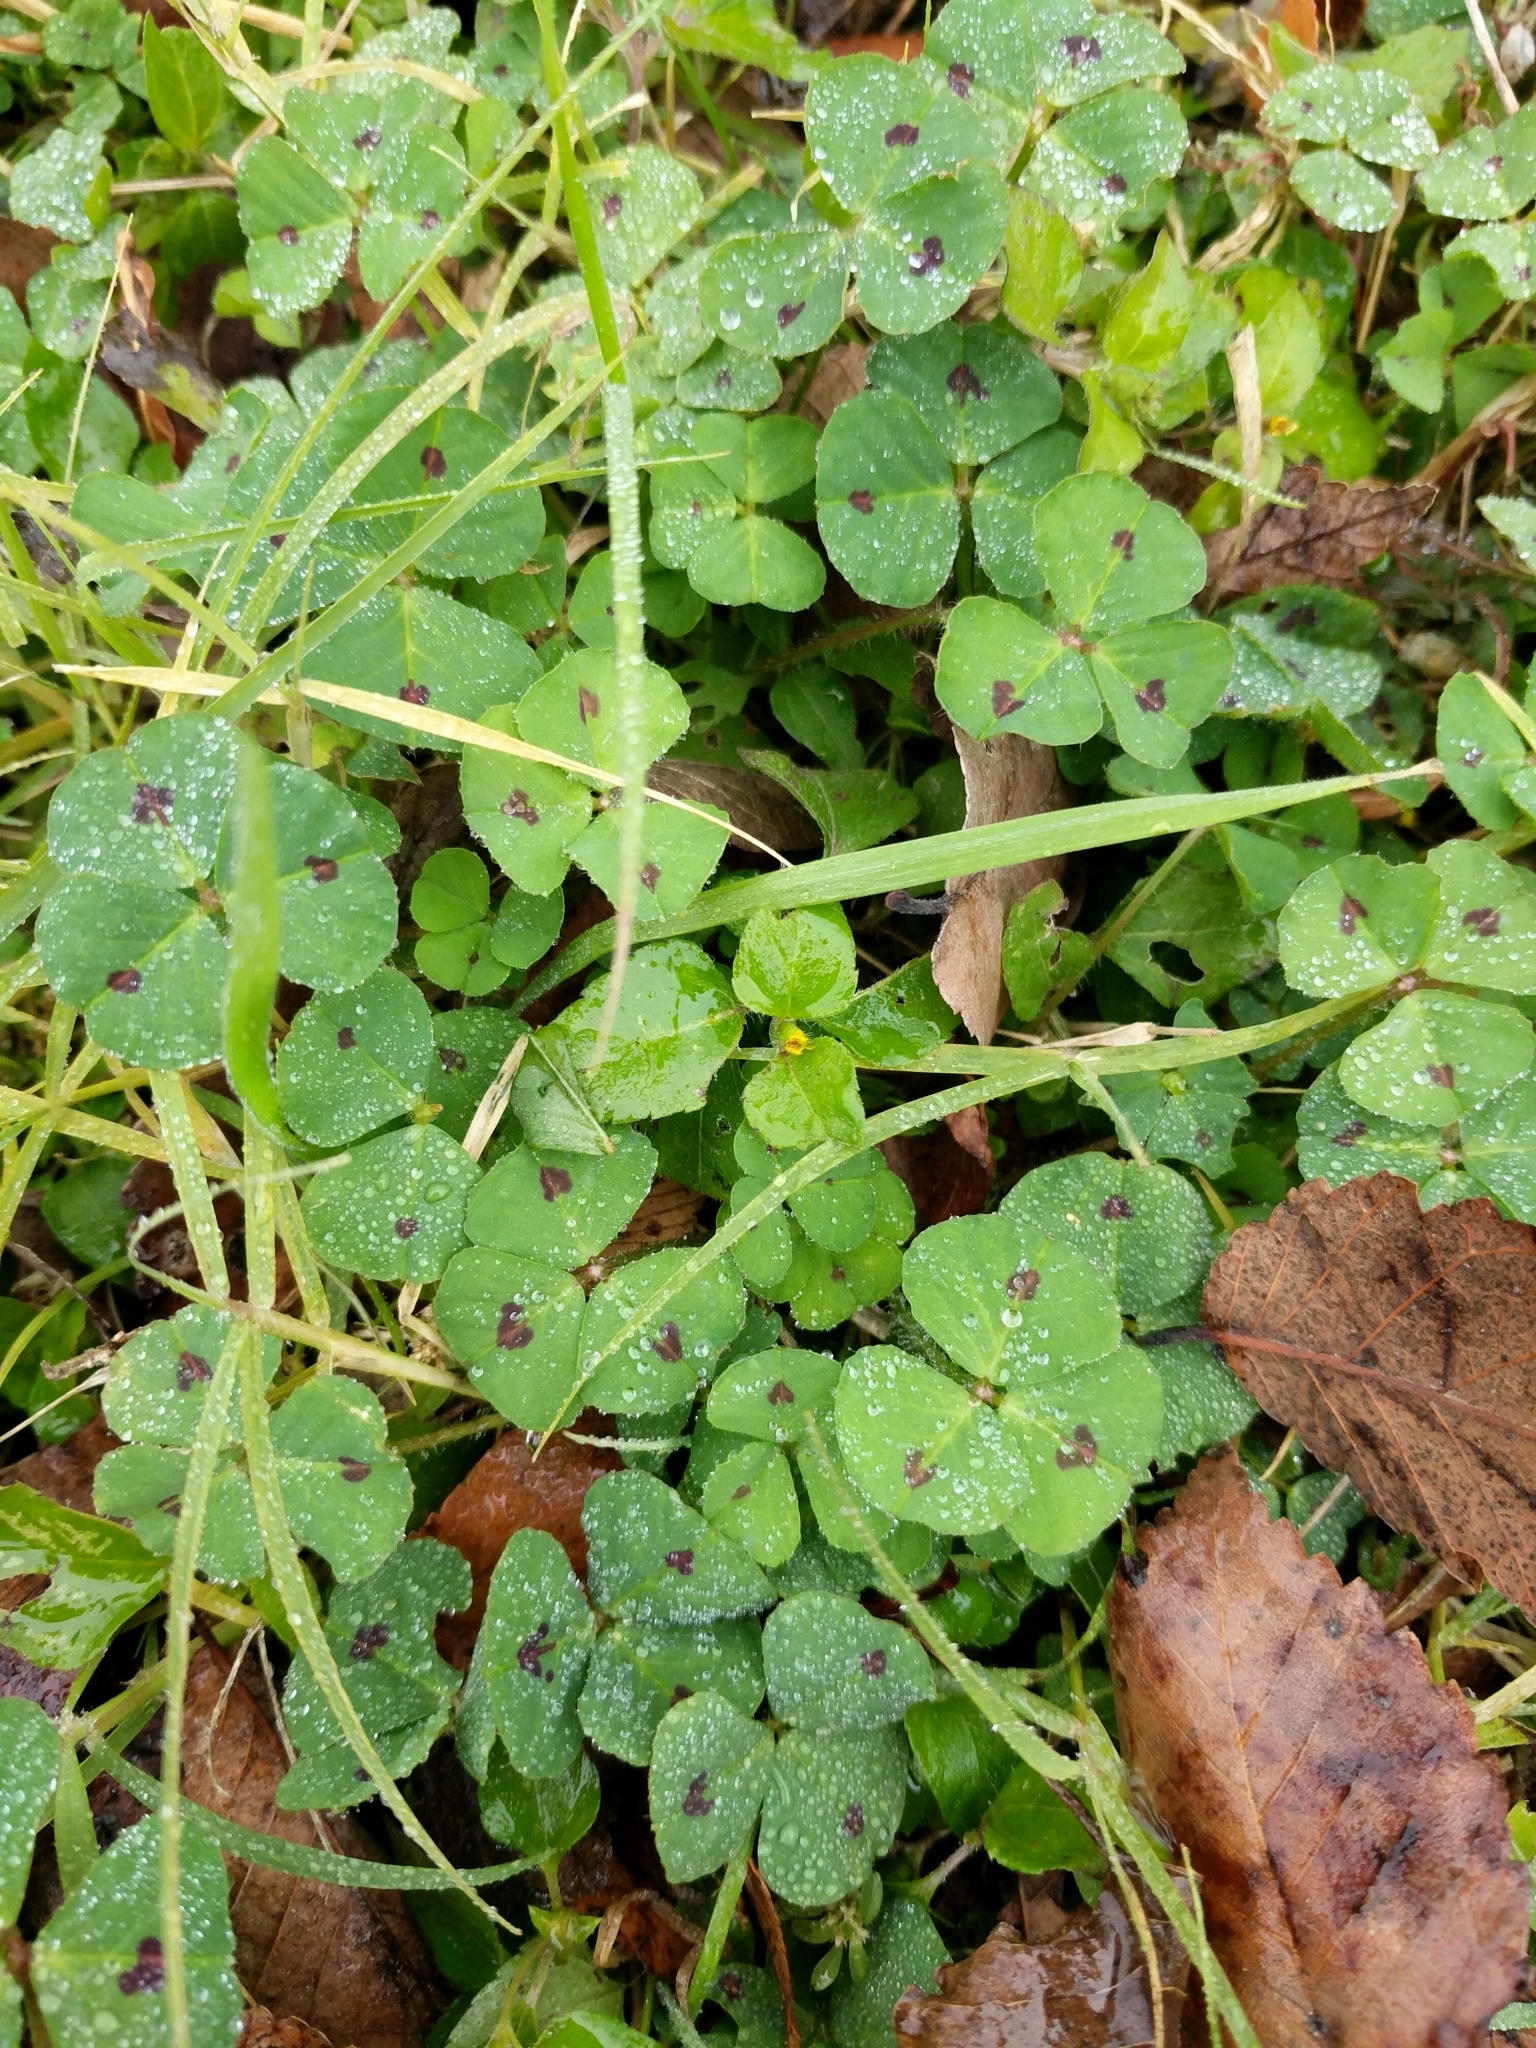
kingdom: Plantae
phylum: Tracheophyta
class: Magnoliopsida
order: Fabales
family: Fabaceae
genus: Medicago
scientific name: Medicago arabica
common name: Spotted medick
